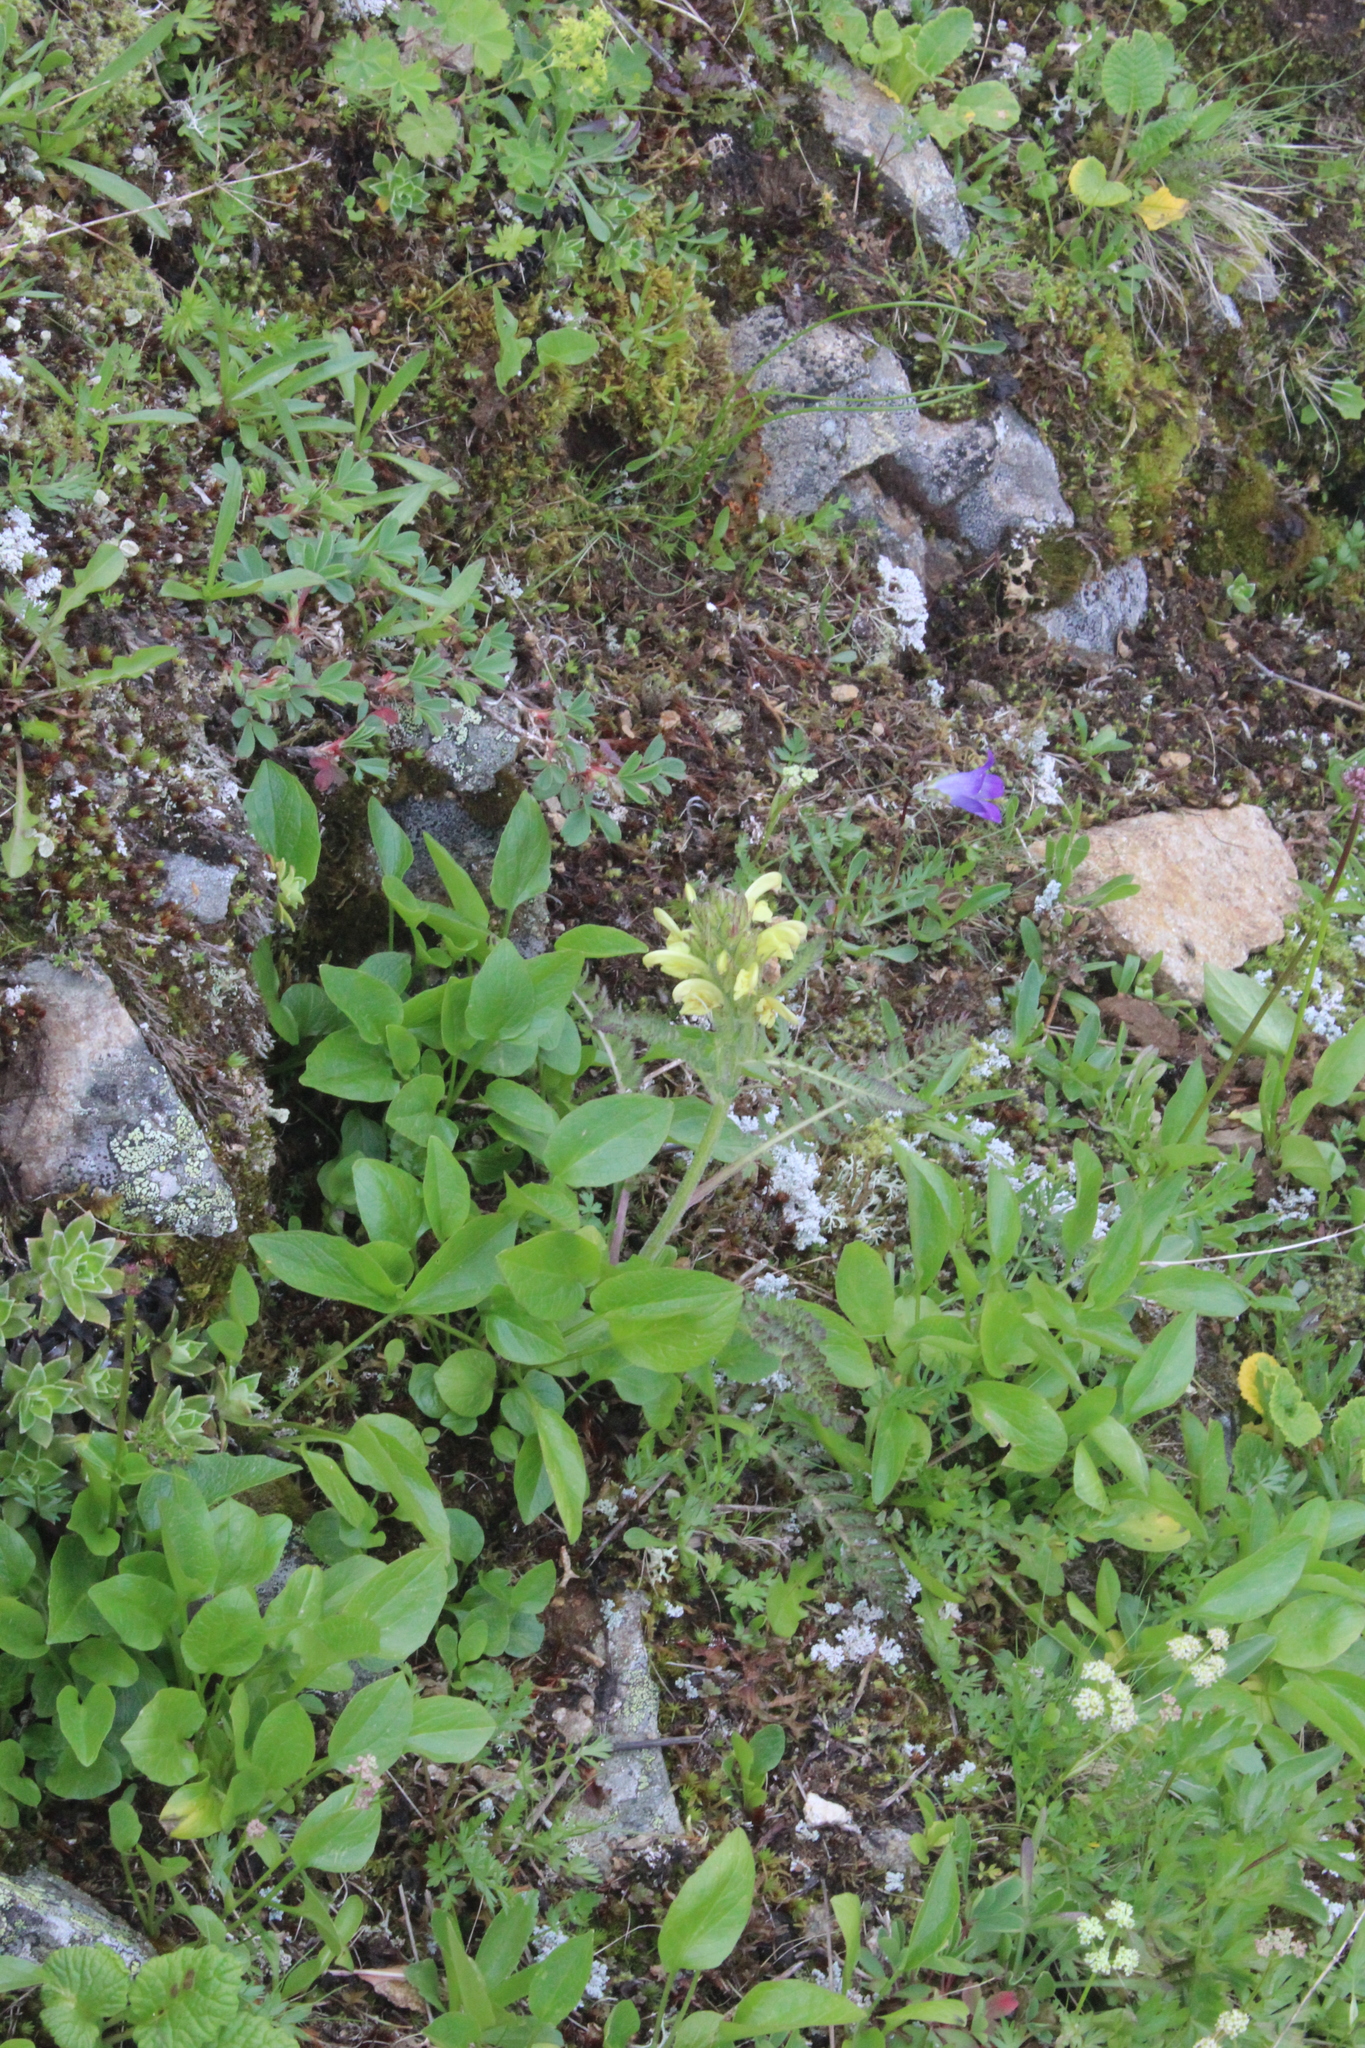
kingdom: Plantae
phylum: Tracheophyta
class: Magnoliopsida
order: Lamiales
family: Orobanchaceae
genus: Pedicularis
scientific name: Pedicularis sibthorpii
